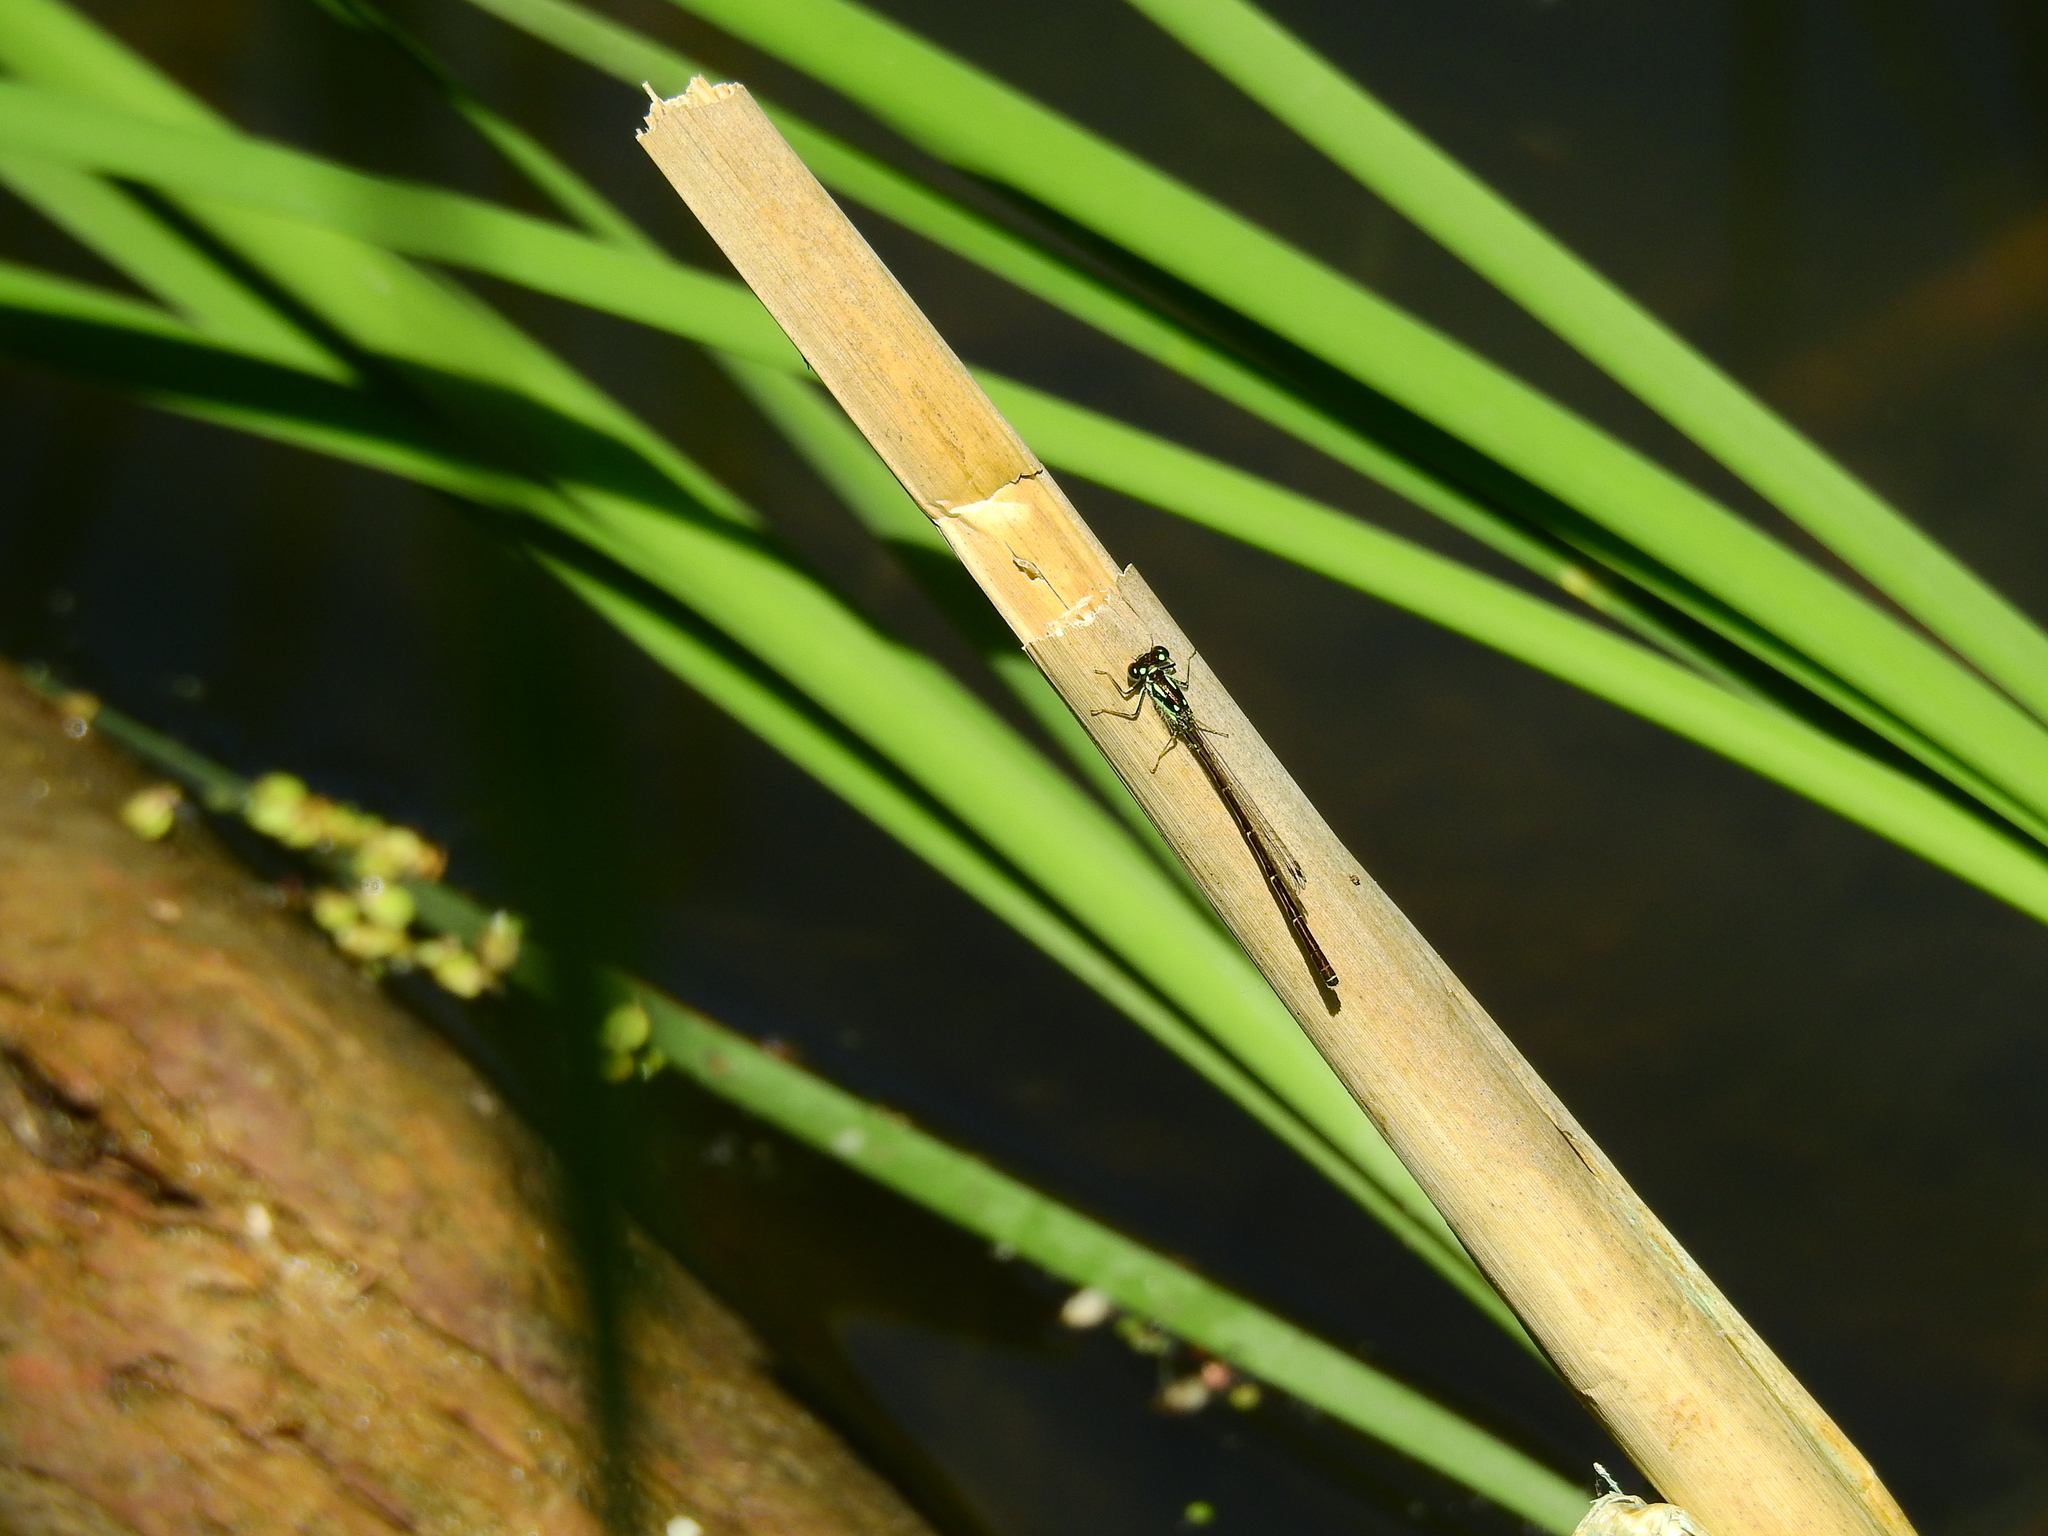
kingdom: Animalia
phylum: Arthropoda
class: Insecta
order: Odonata
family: Coenagrionidae
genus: Ischnura
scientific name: Ischnura posita
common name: Fragile forktail
